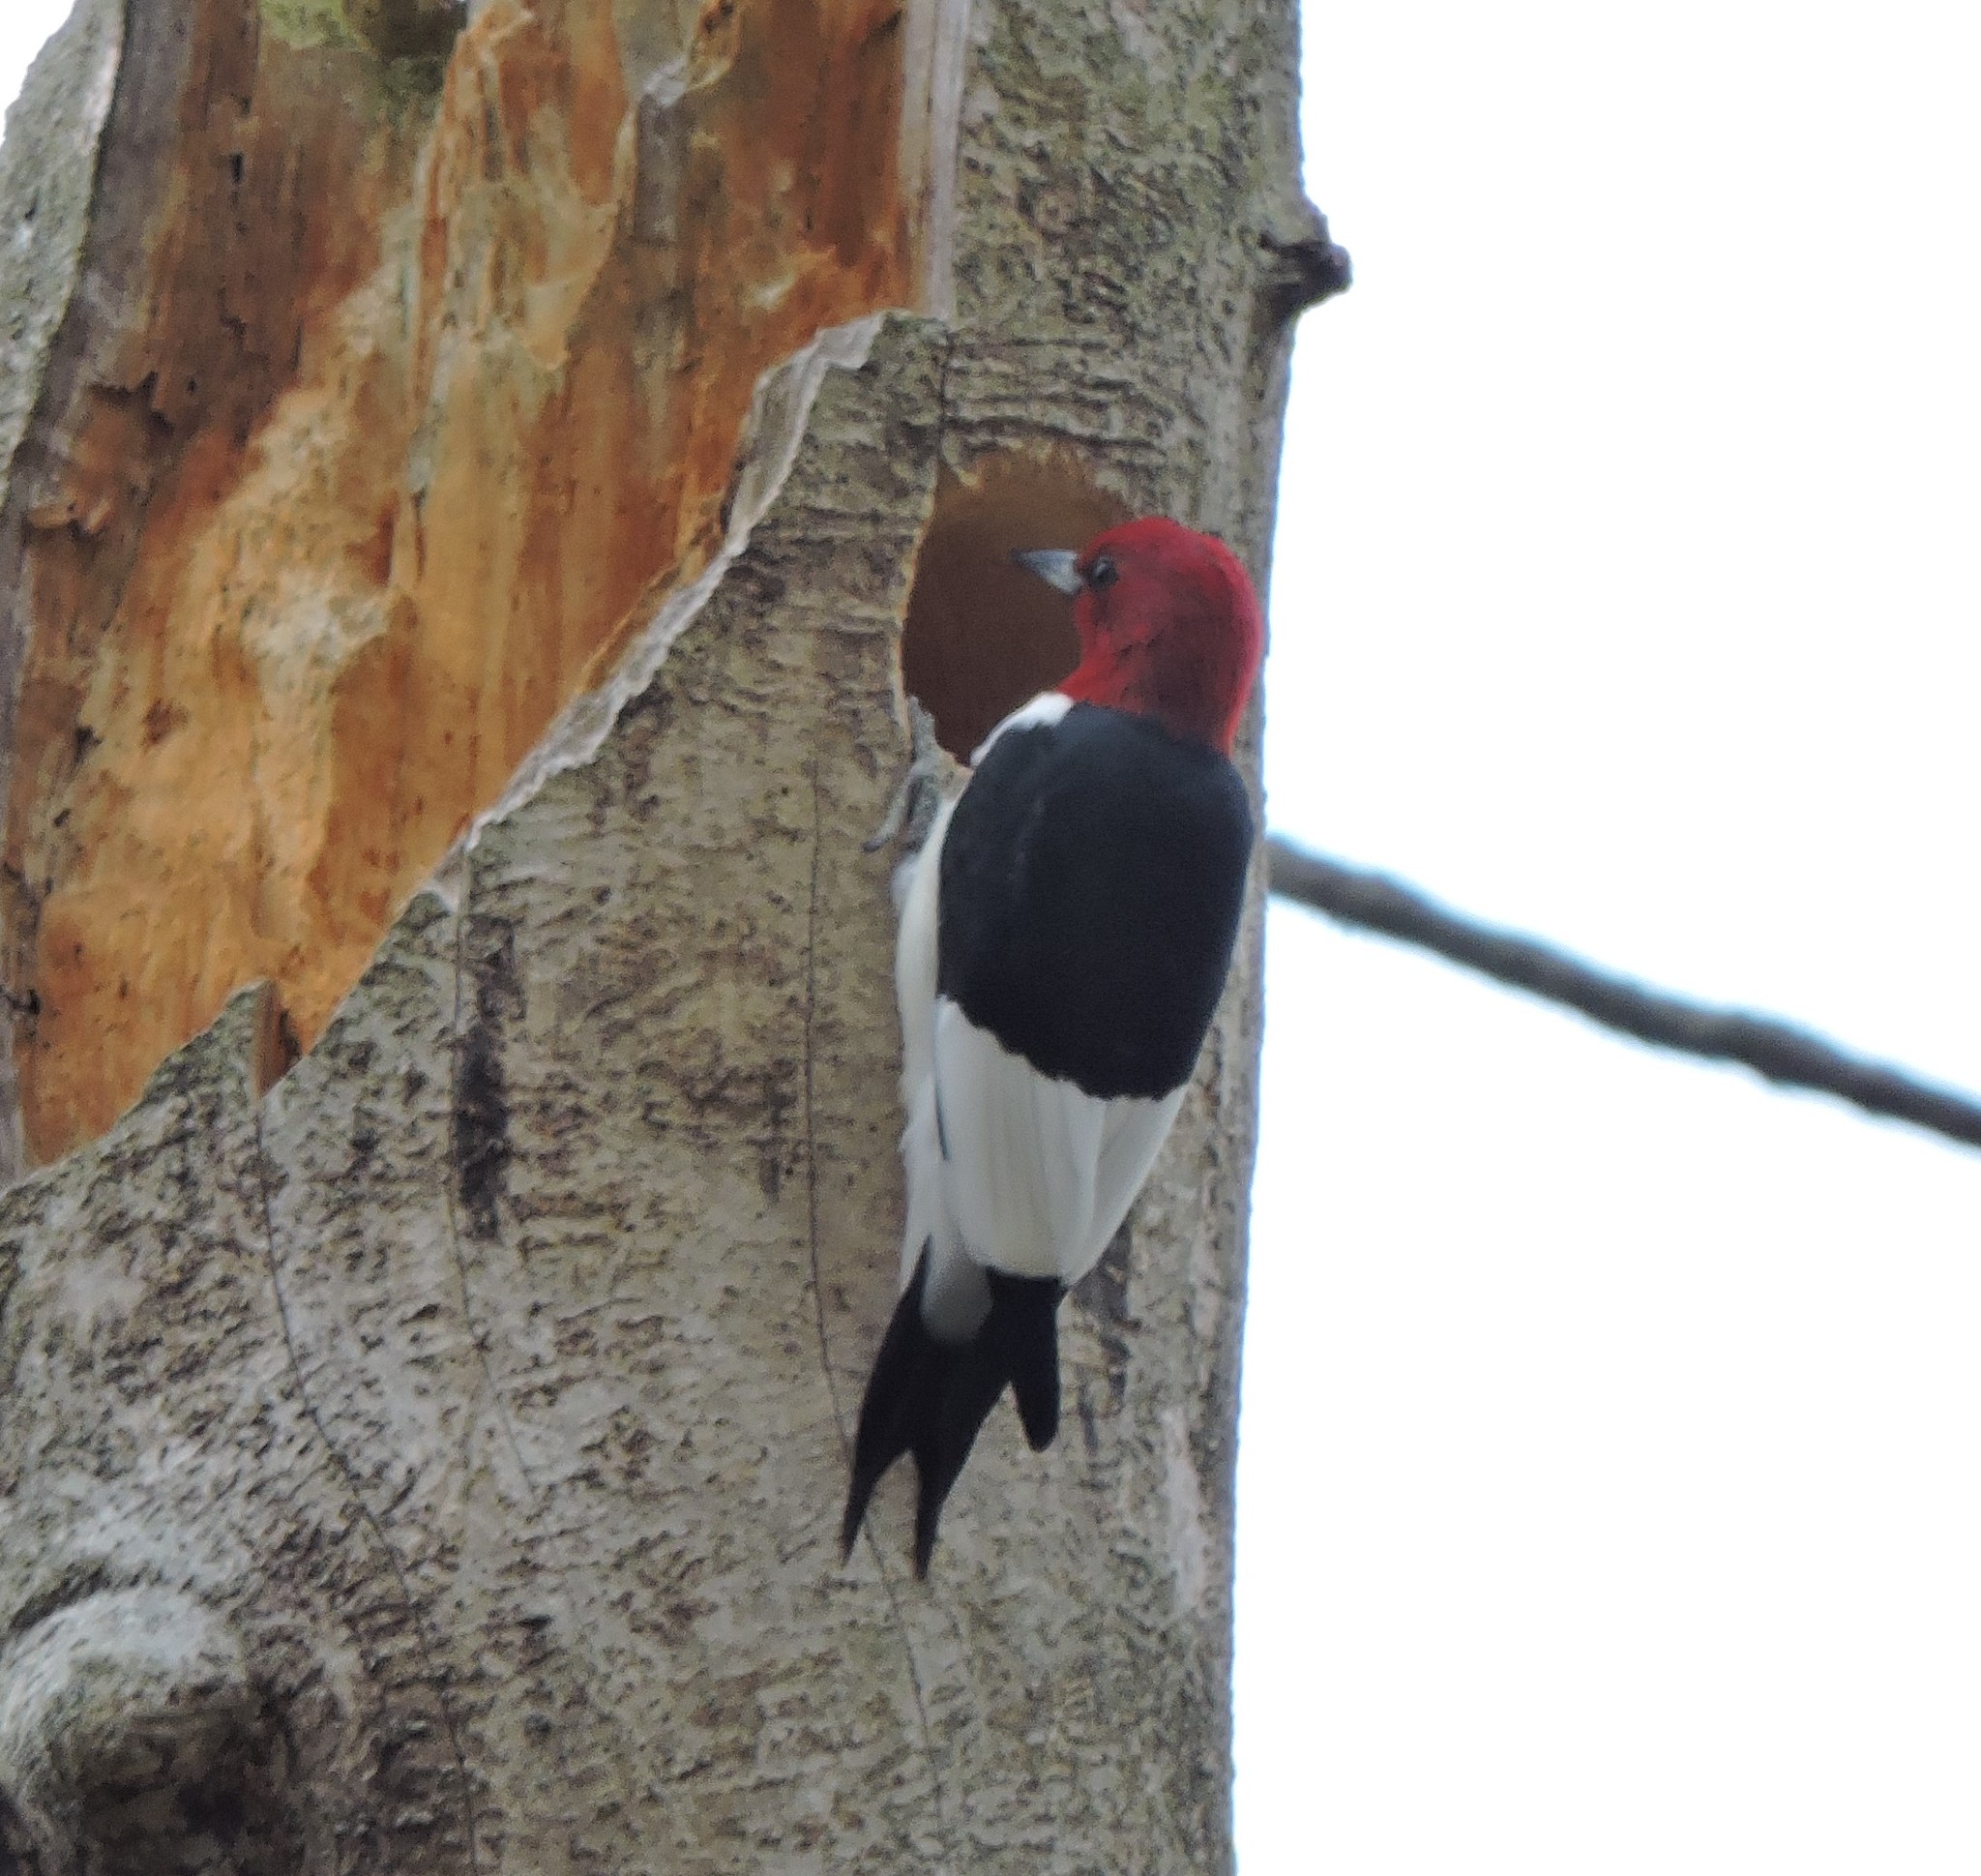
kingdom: Animalia
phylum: Chordata
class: Aves
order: Piciformes
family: Picidae
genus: Melanerpes
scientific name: Melanerpes erythrocephalus
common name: Red-headed woodpecker
